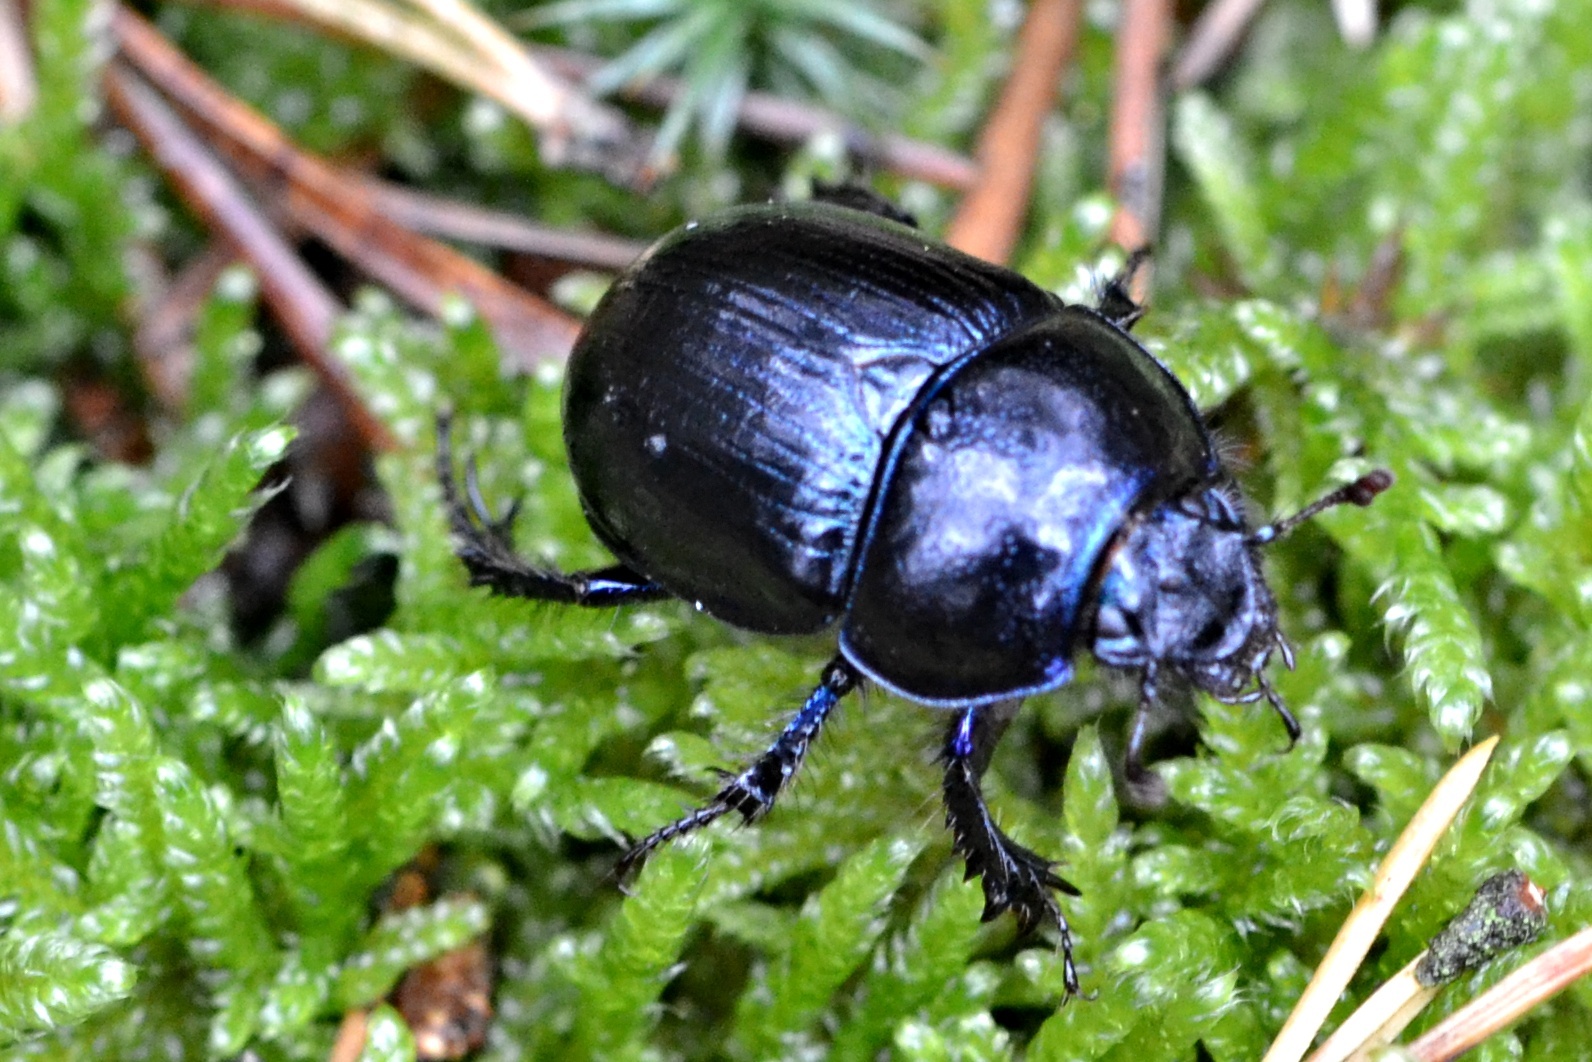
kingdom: Animalia
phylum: Arthropoda
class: Insecta
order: Coleoptera
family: Geotrupidae
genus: Anoplotrupes
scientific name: Anoplotrupes stercorosus
